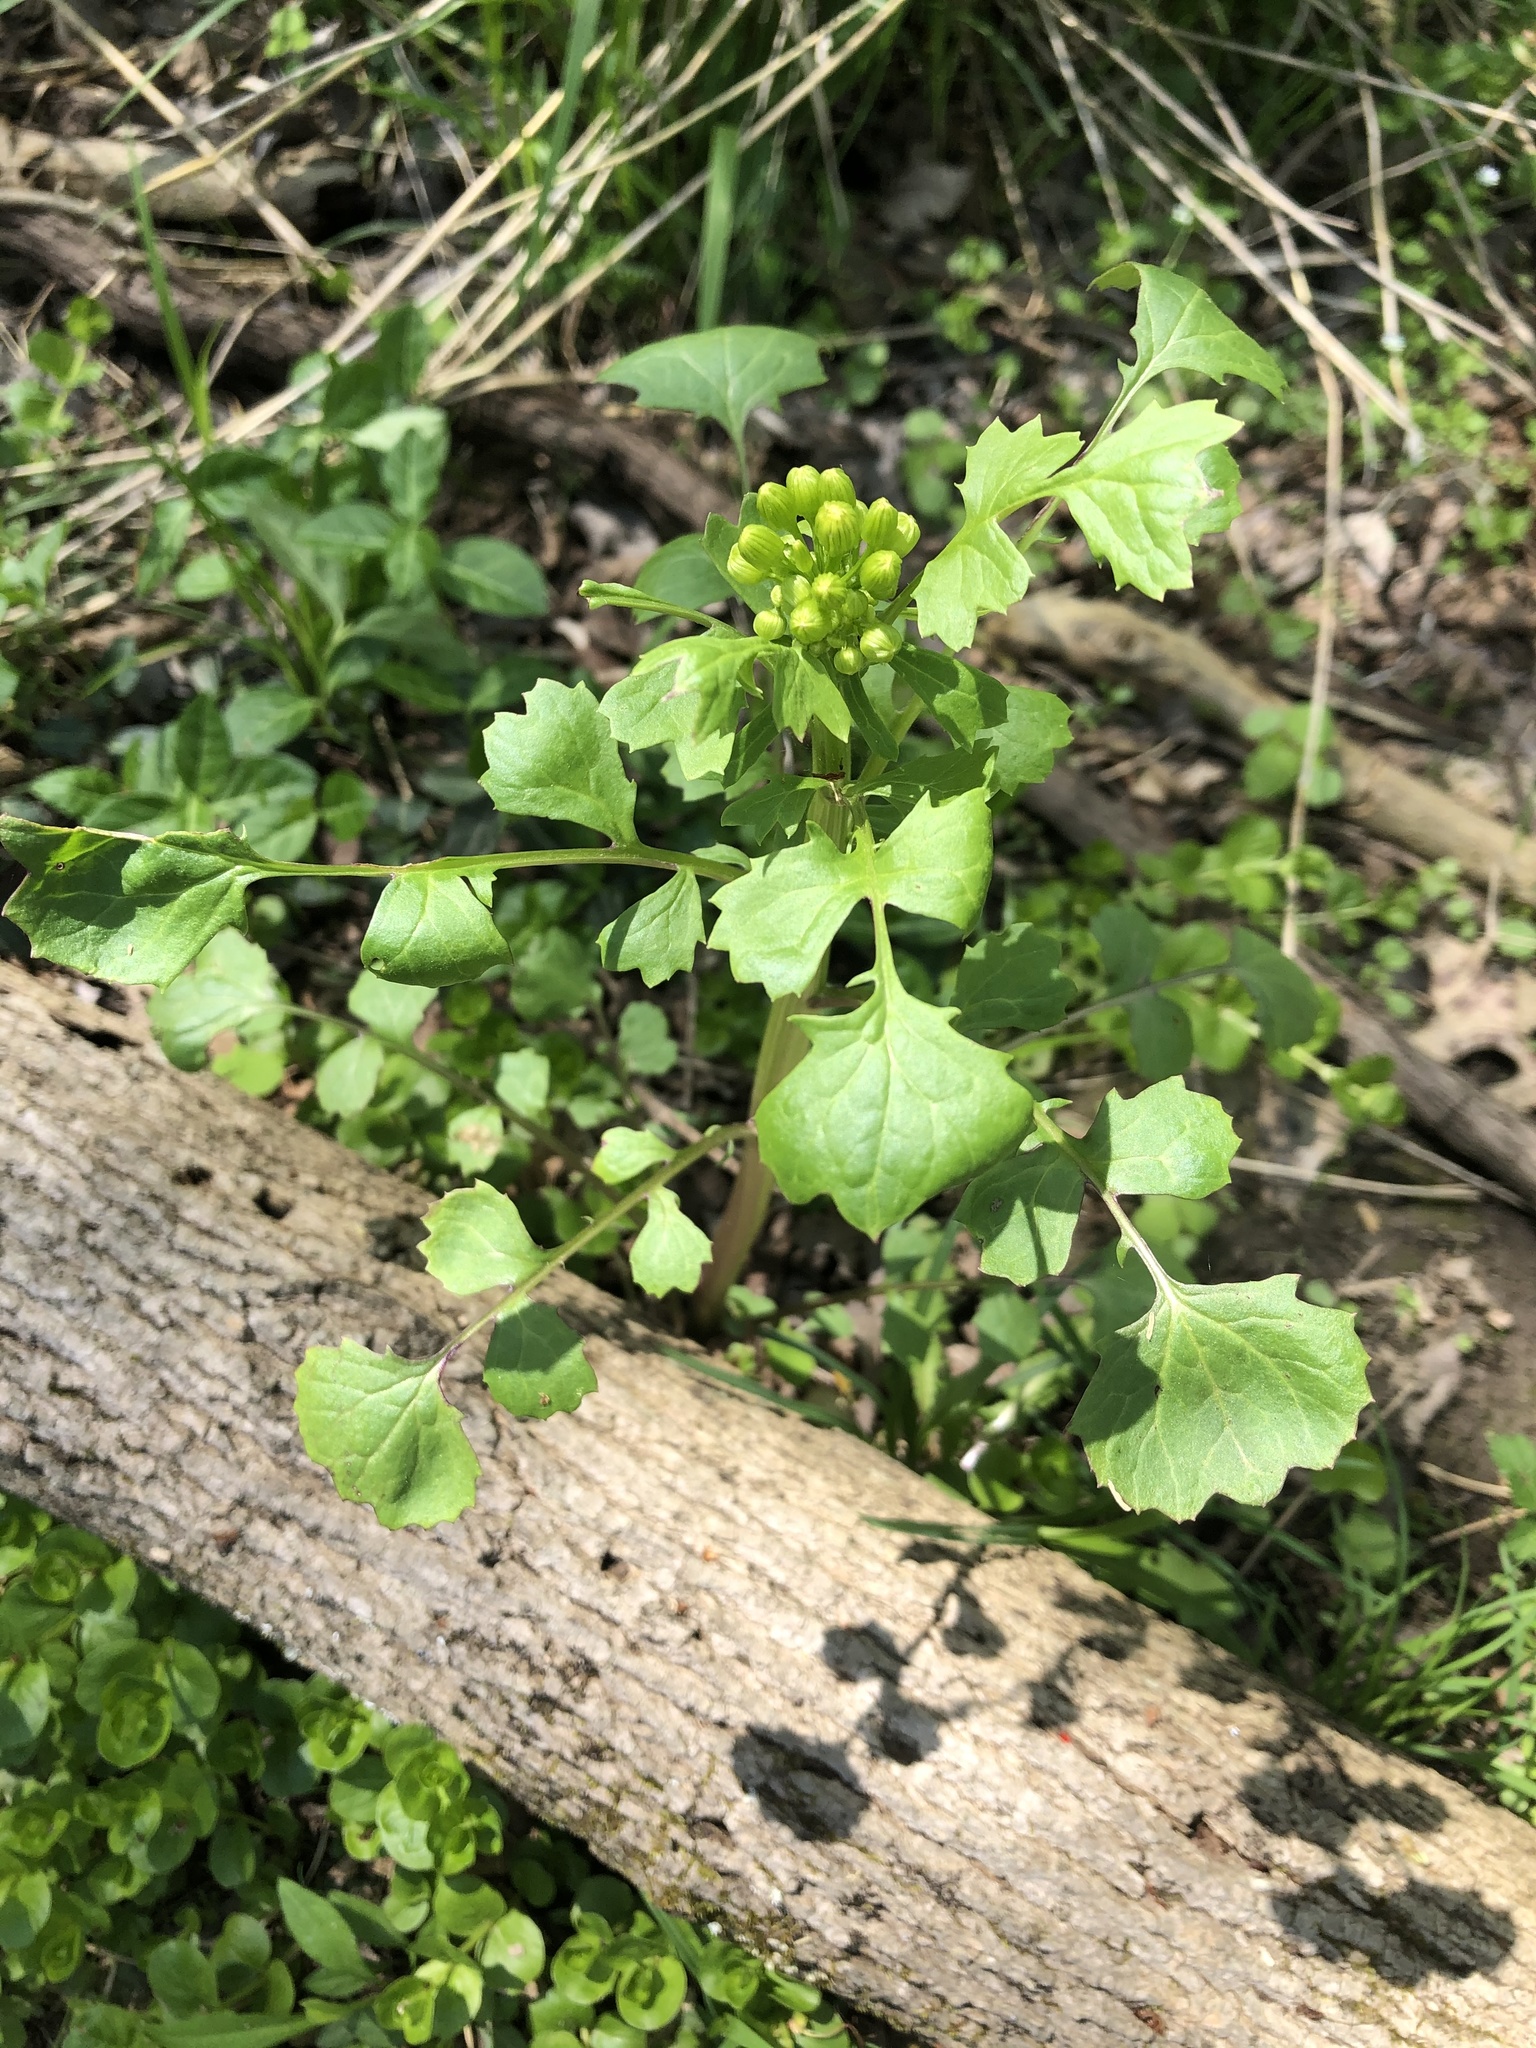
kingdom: Plantae
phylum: Tracheophyta
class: Magnoliopsida
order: Asterales
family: Asteraceae
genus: Packera
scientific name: Packera glabella
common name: Butterweed
